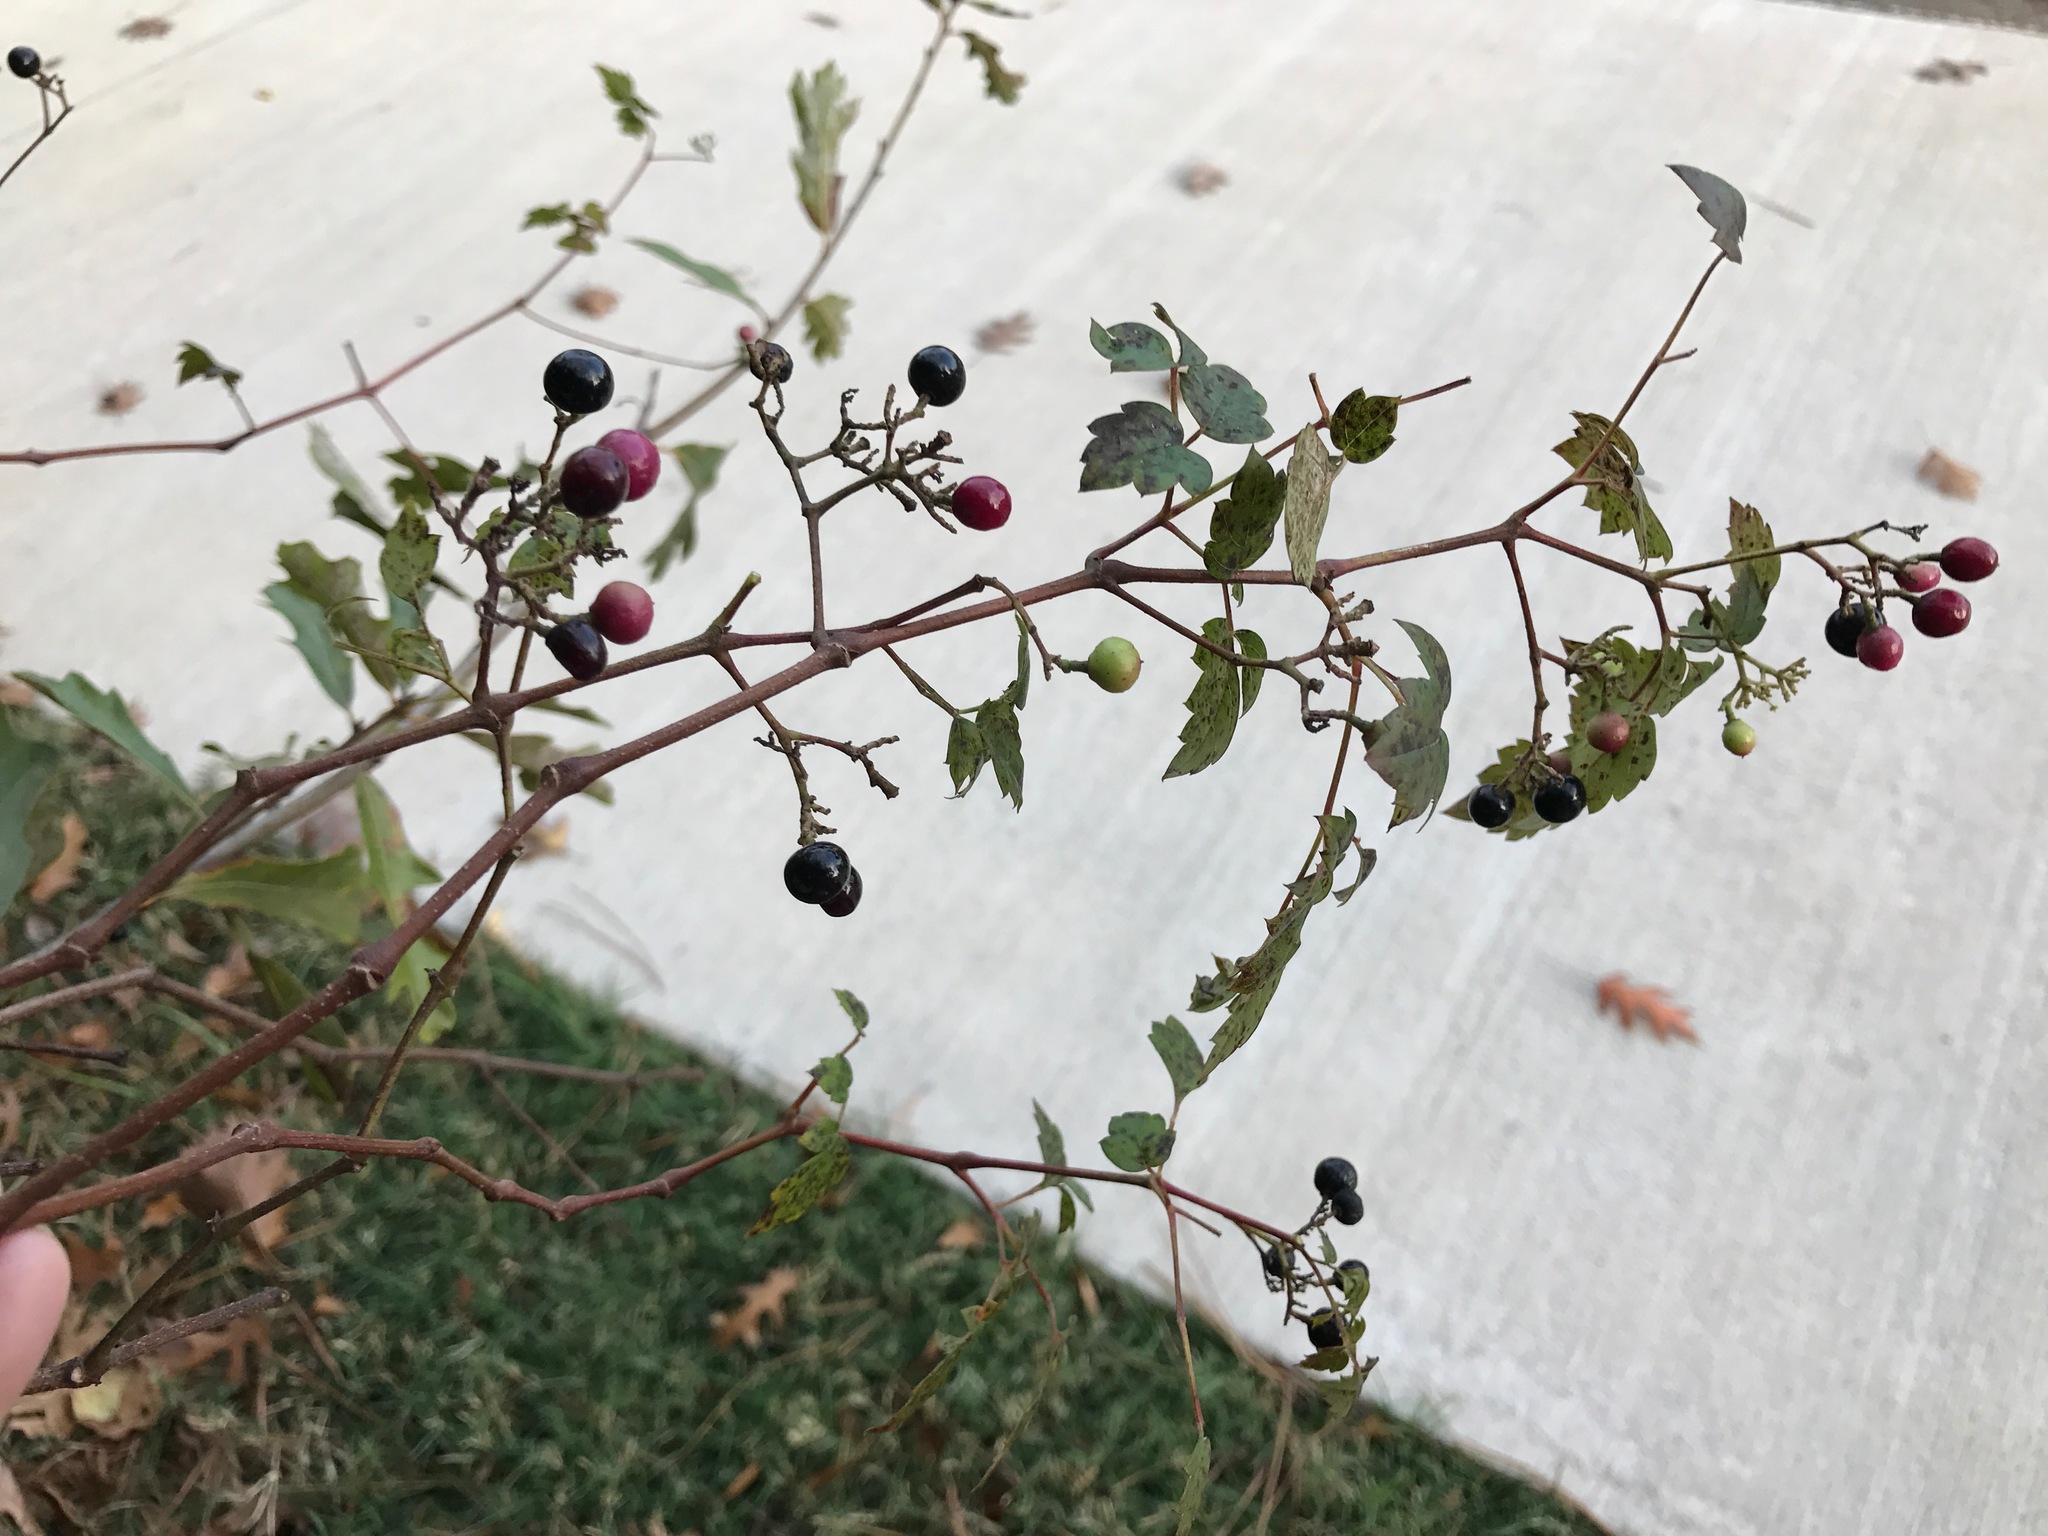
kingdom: Plantae
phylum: Tracheophyta
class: Magnoliopsida
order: Vitales
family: Vitaceae
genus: Nekemias
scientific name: Nekemias arborea
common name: Peppervine
